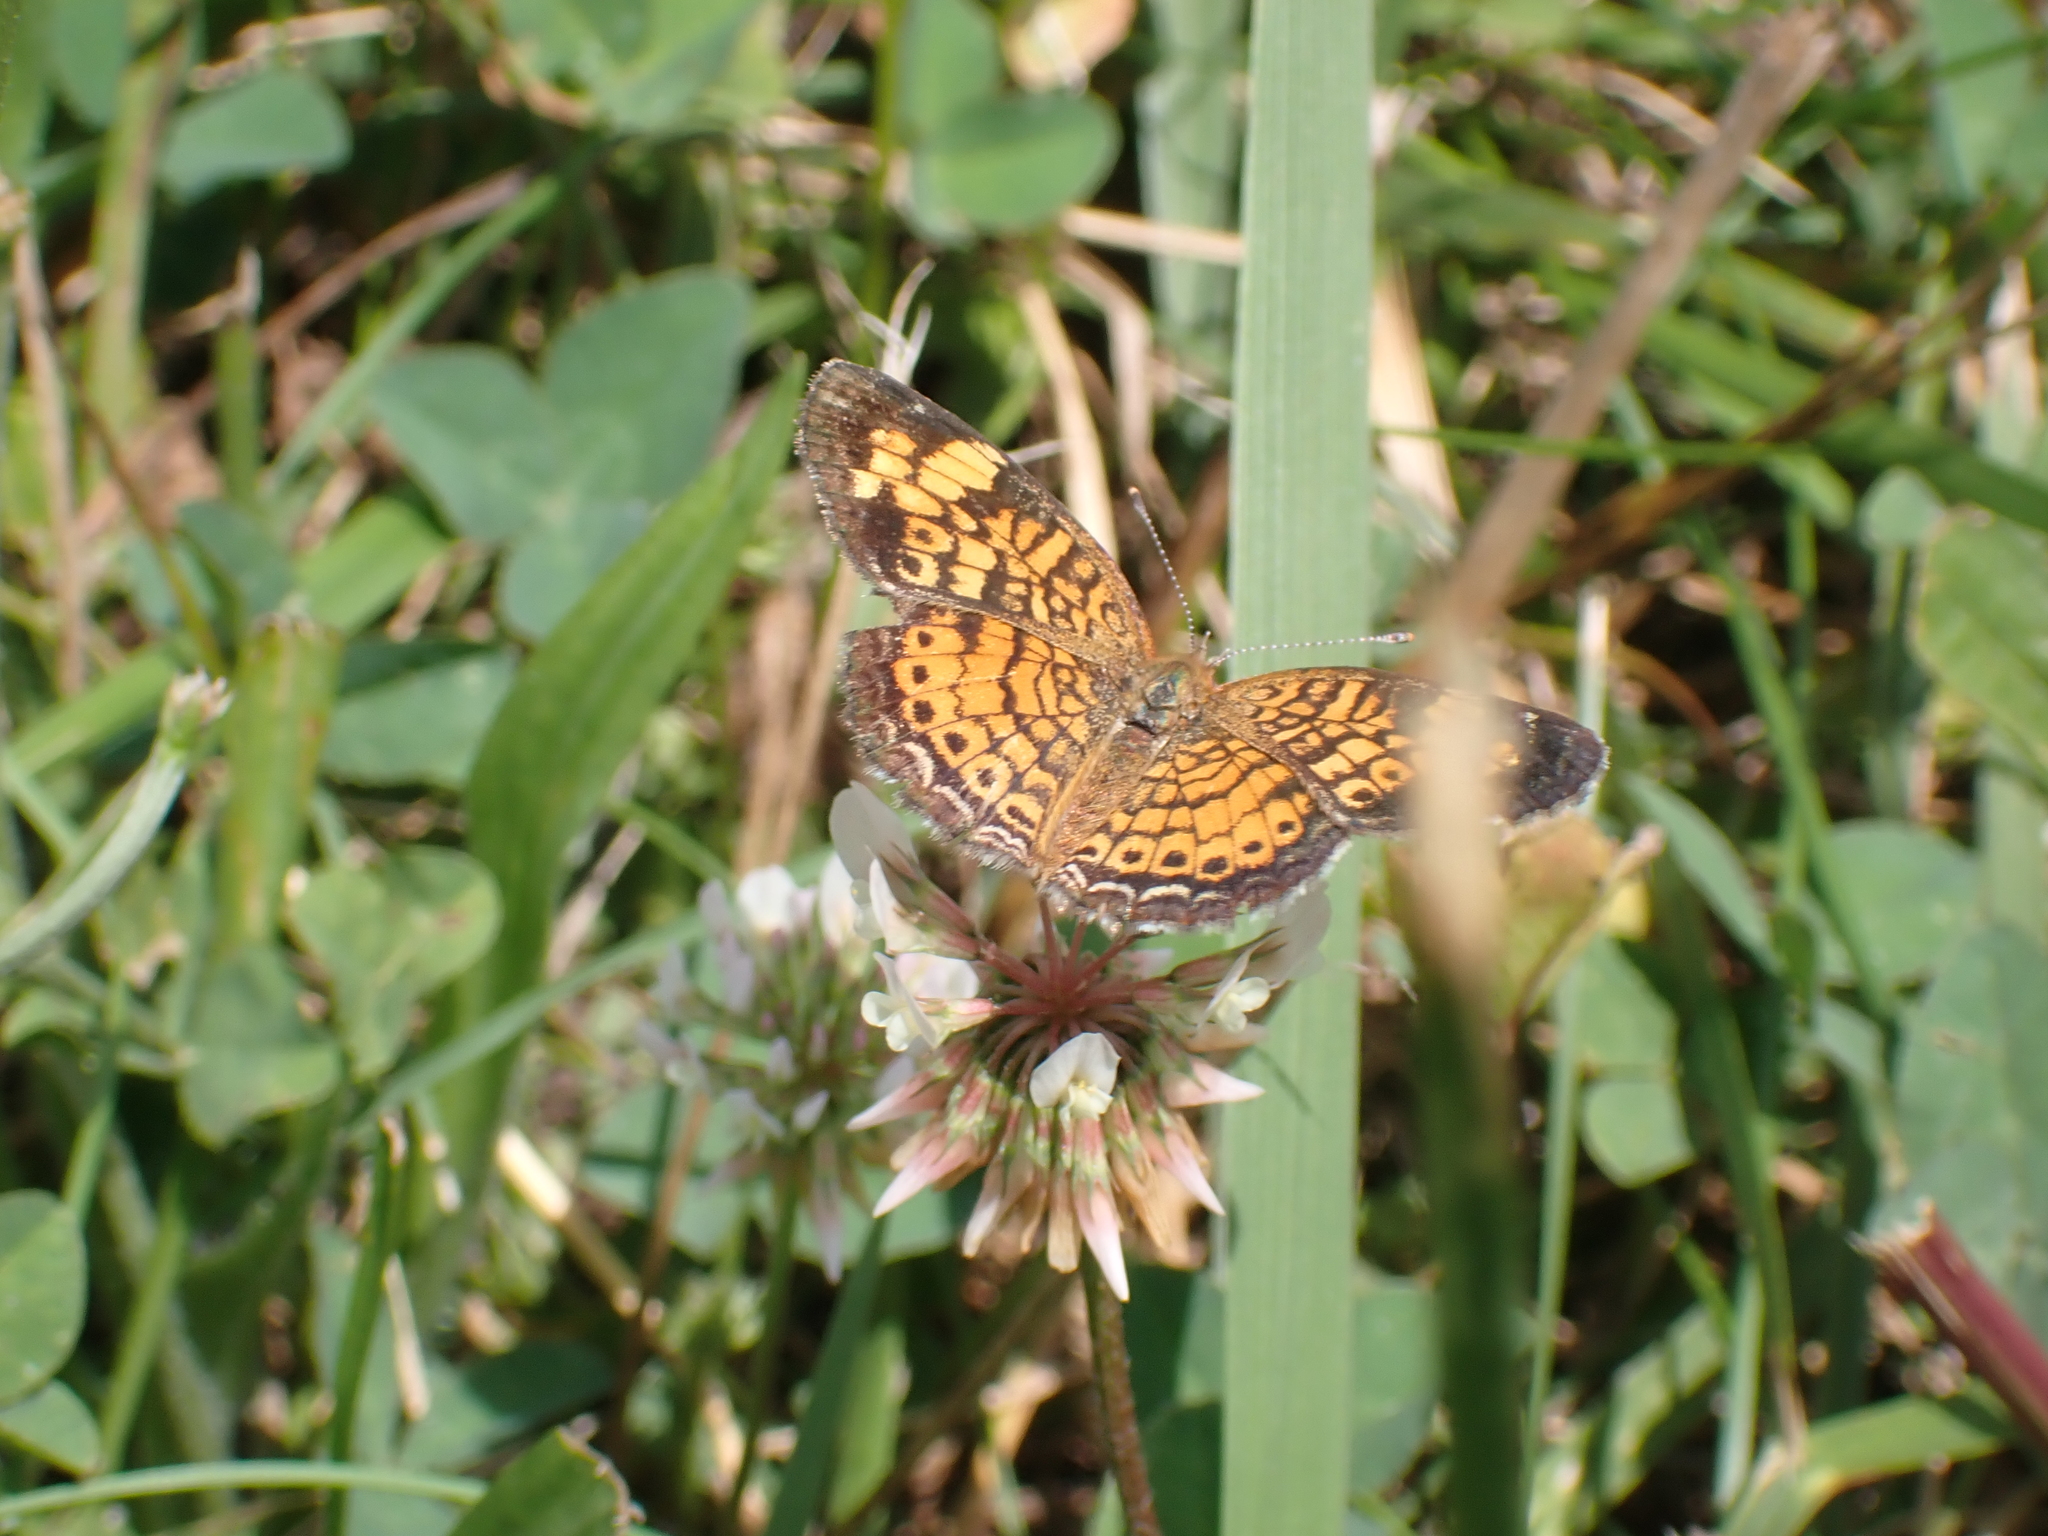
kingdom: Animalia
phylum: Arthropoda
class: Insecta
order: Lepidoptera
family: Nymphalidae
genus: Phyciodes
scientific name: Phyciodes tharos
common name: Pearl crescent
